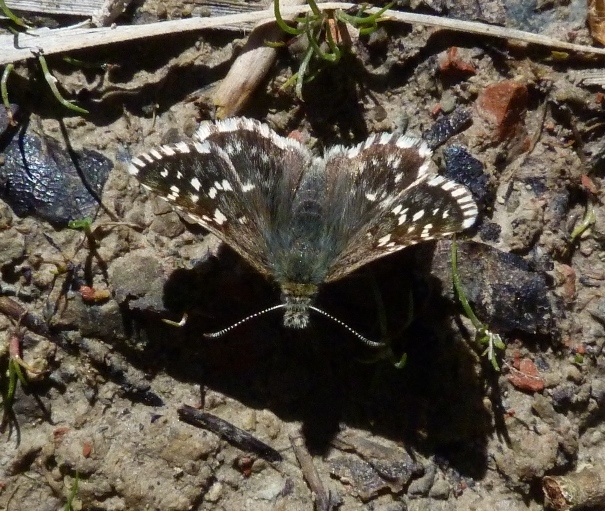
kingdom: Animalia
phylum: Arthropoda
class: Insecta
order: Lepidoptera
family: Hesperiidae
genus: Pyrgus
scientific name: Pyrgus malvoides
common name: Southern grizzled skipper
